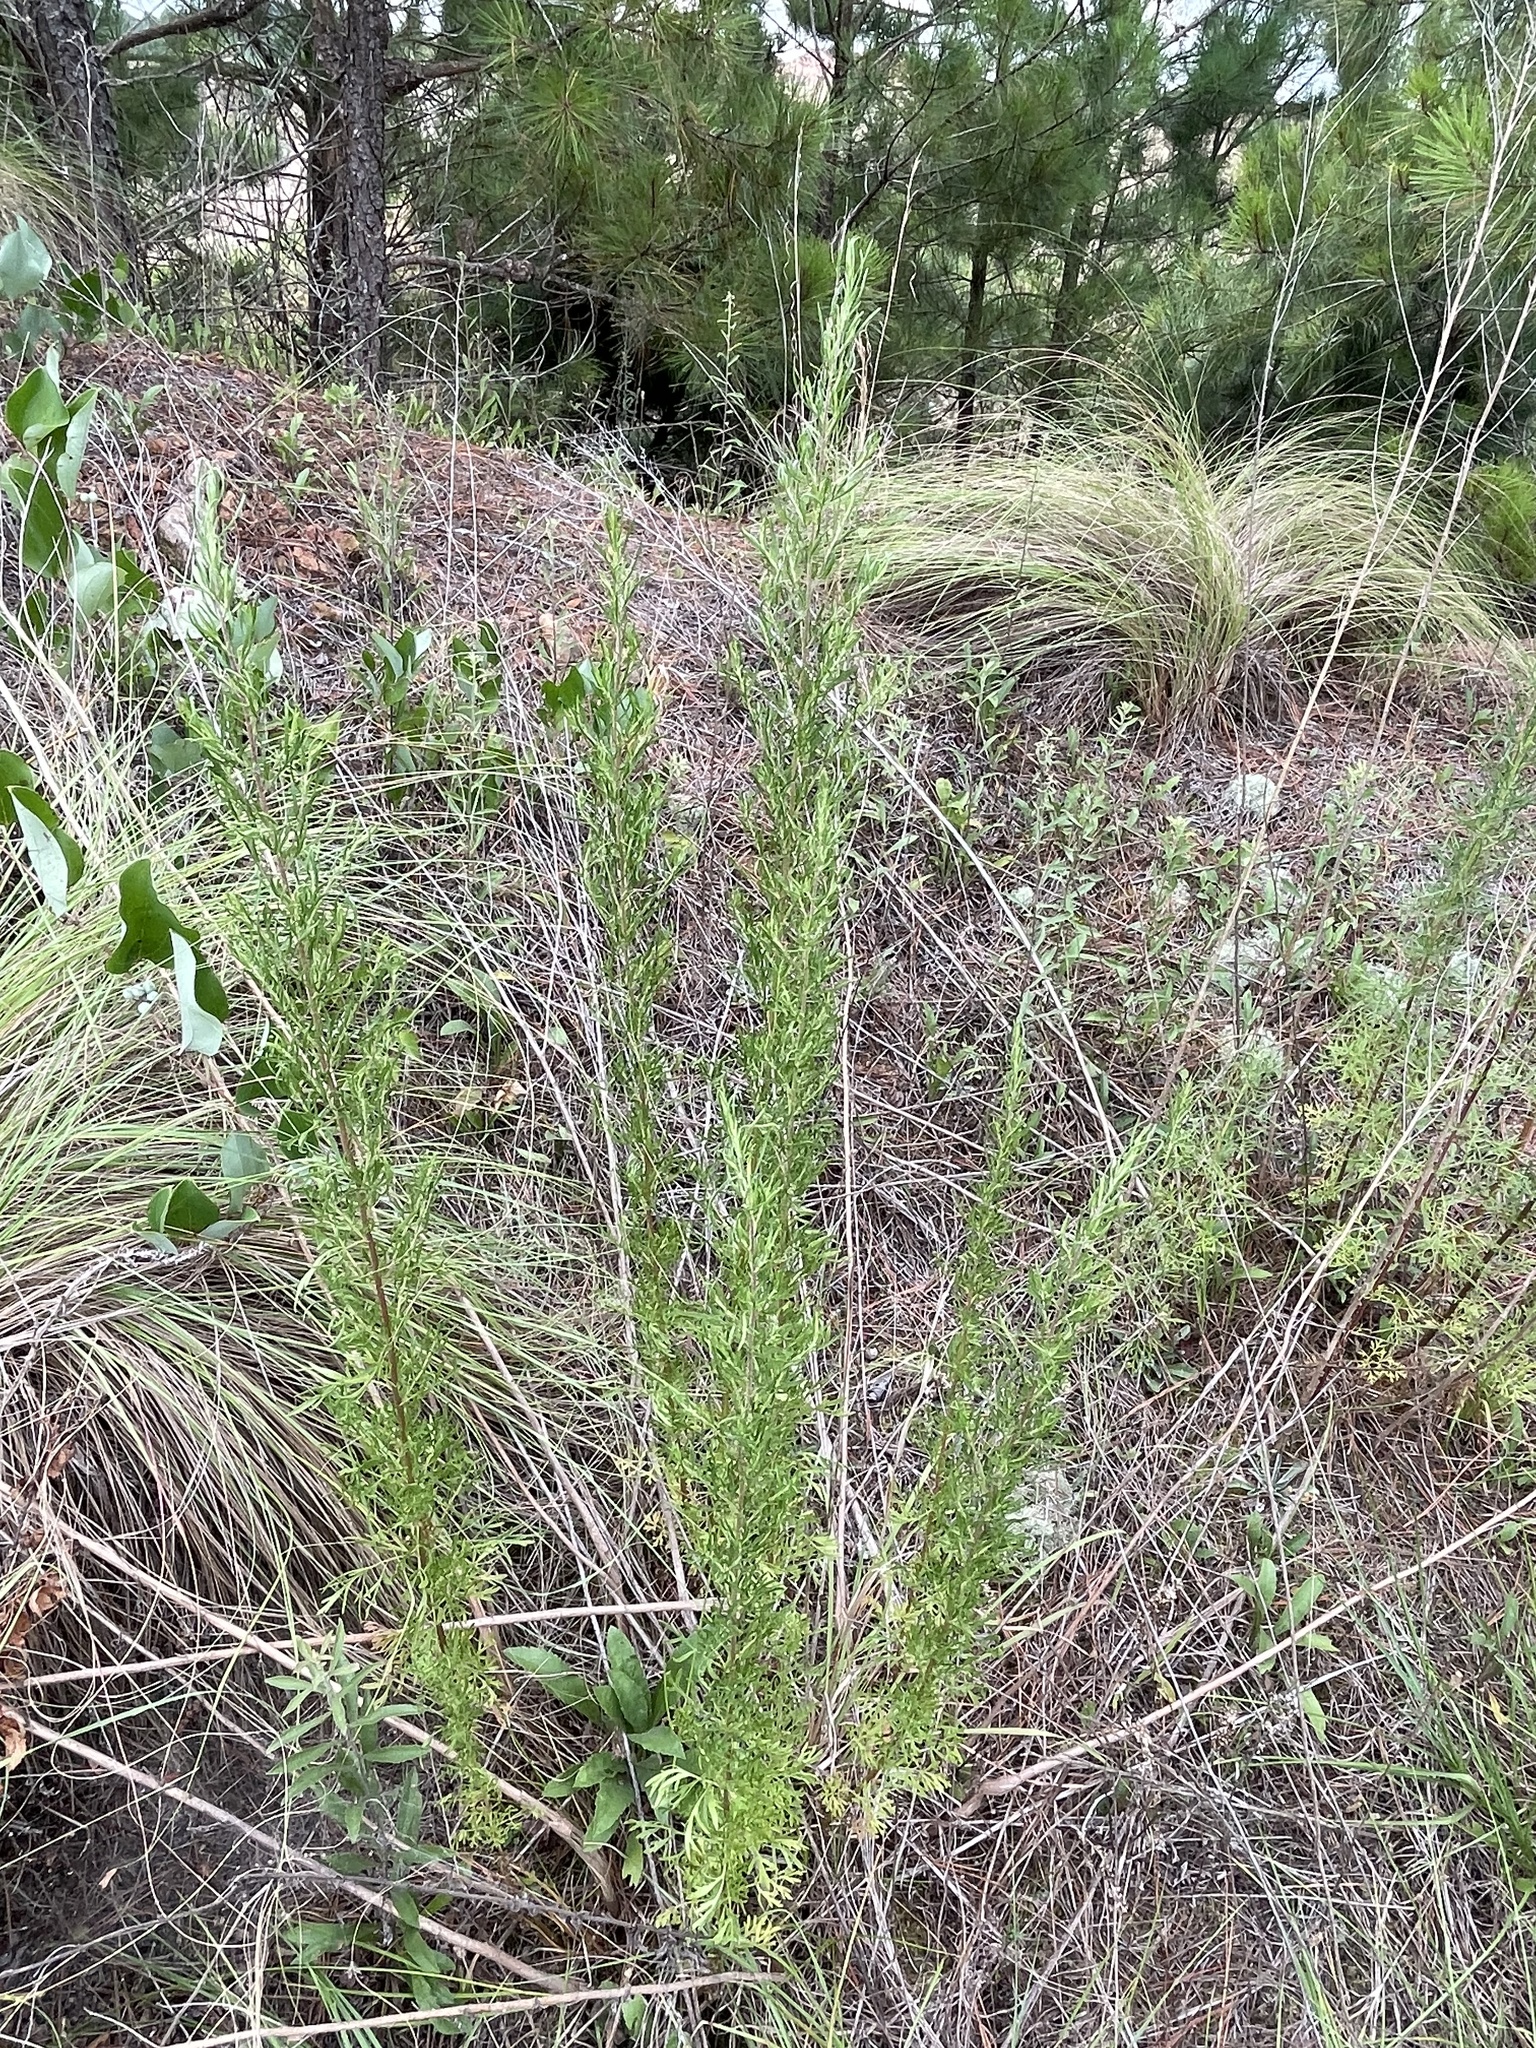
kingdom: Plantae
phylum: Tracheophyta
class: Magnoliopsida
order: Asterales
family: Asteraceae
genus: Eupatorium
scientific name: Eupatorium compositifolium
